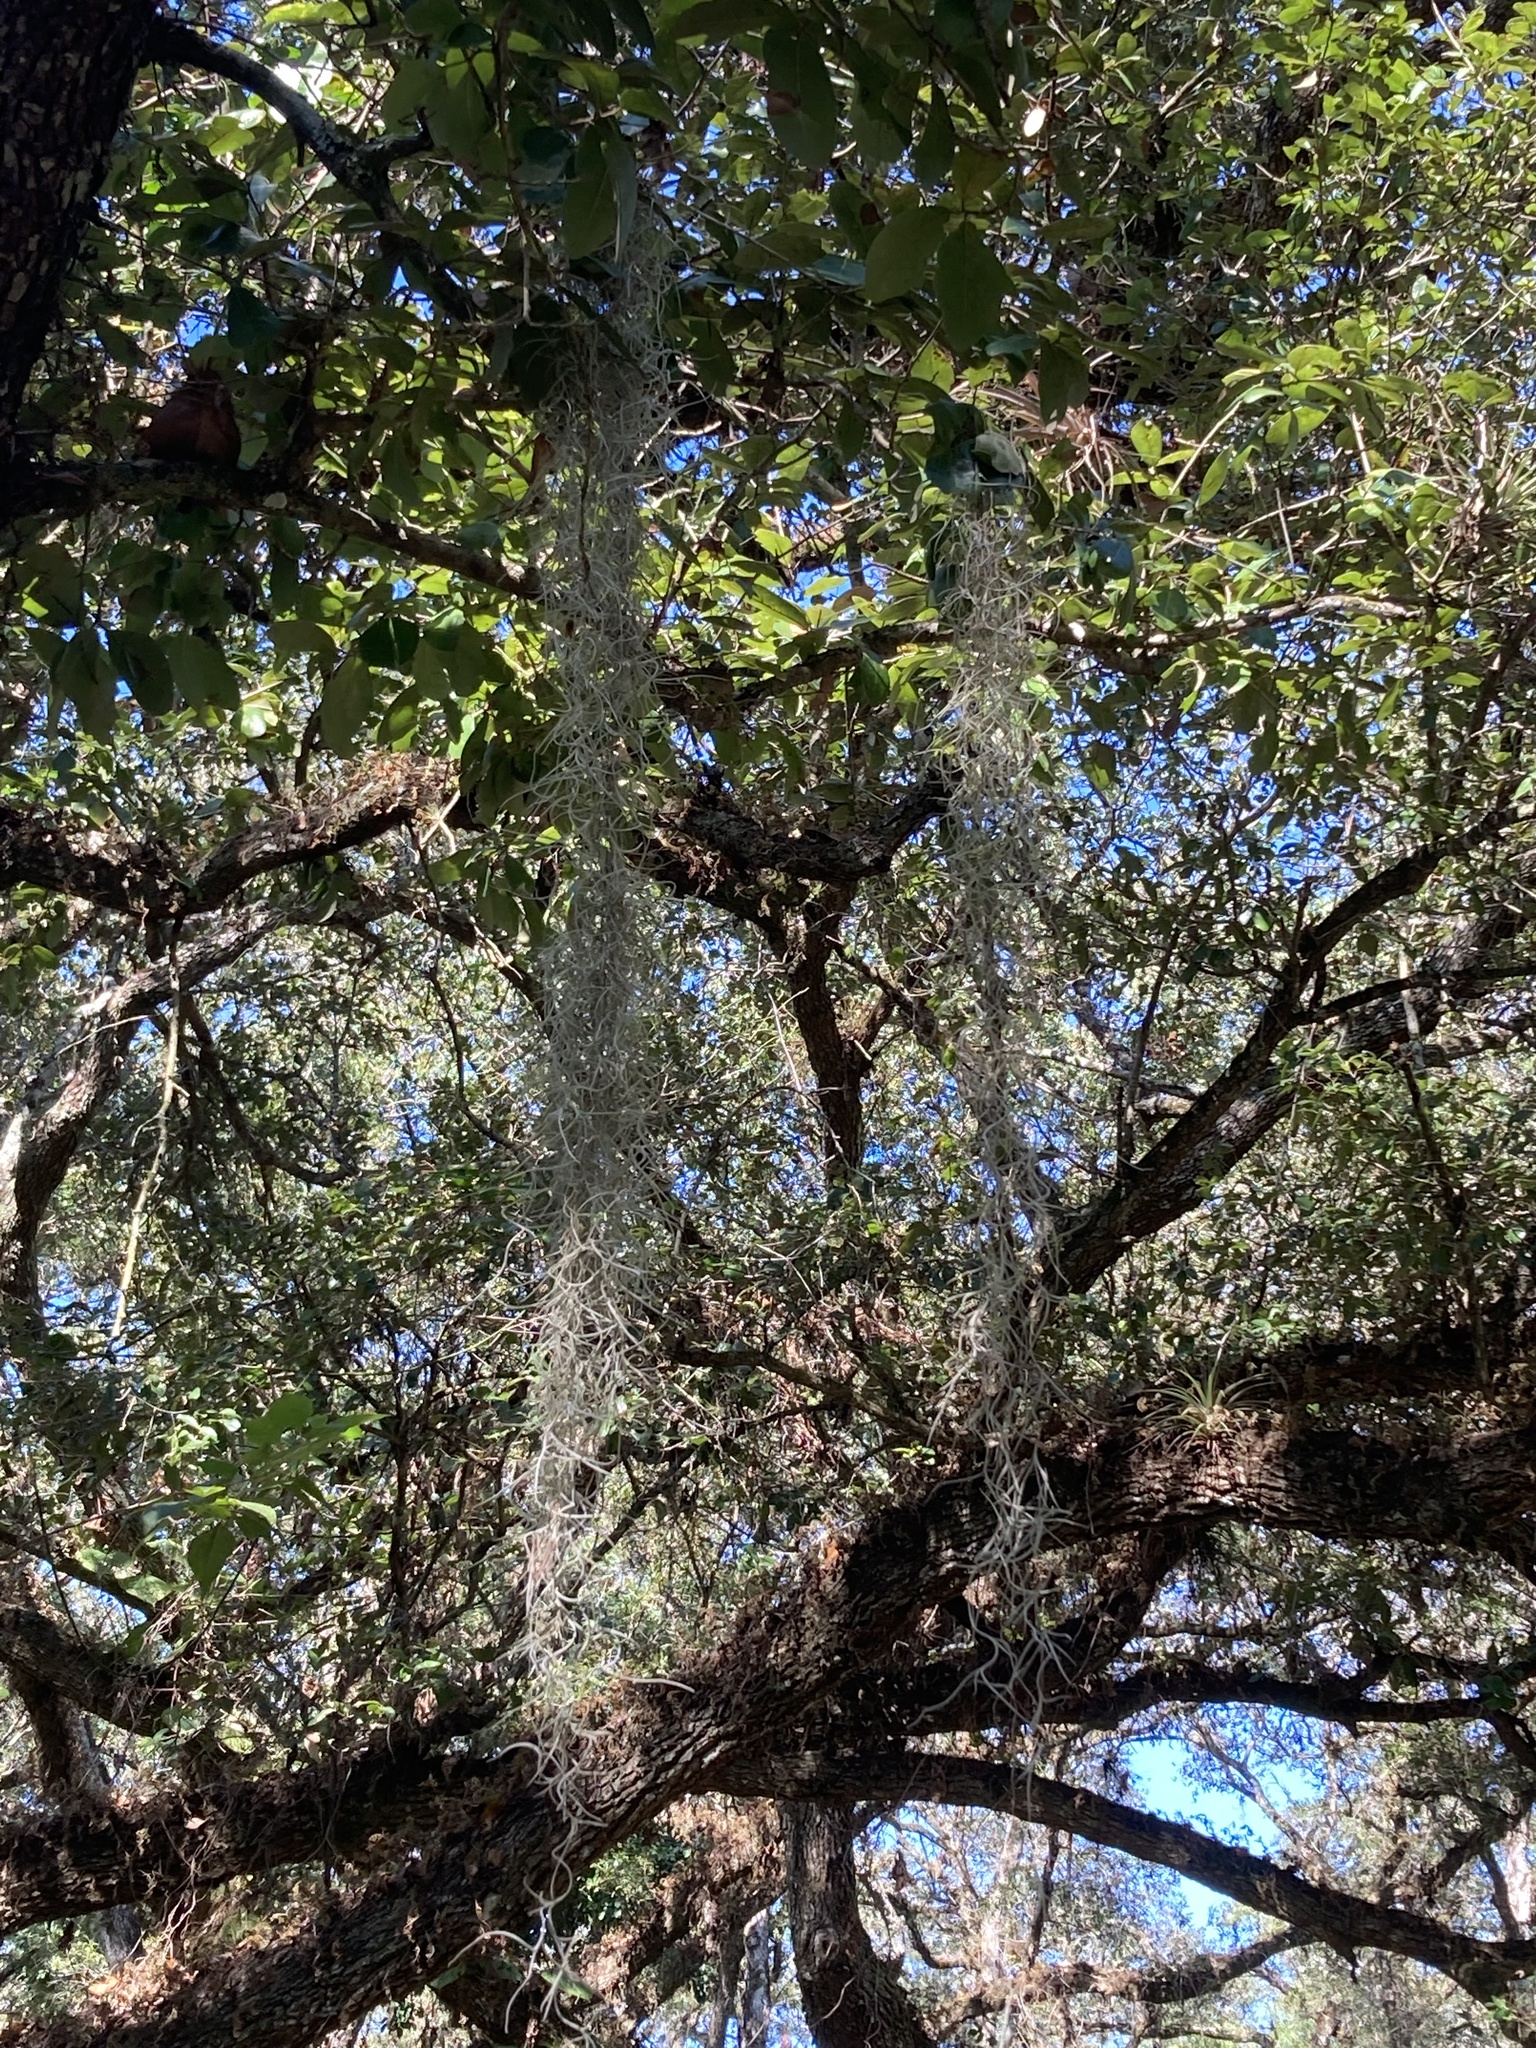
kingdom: Plantae
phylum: Tracheophyta
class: Liliopsida
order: Poales
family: Bromeliaceae
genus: Tillandsia
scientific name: Tillandsia usneoides
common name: Spanish moss
